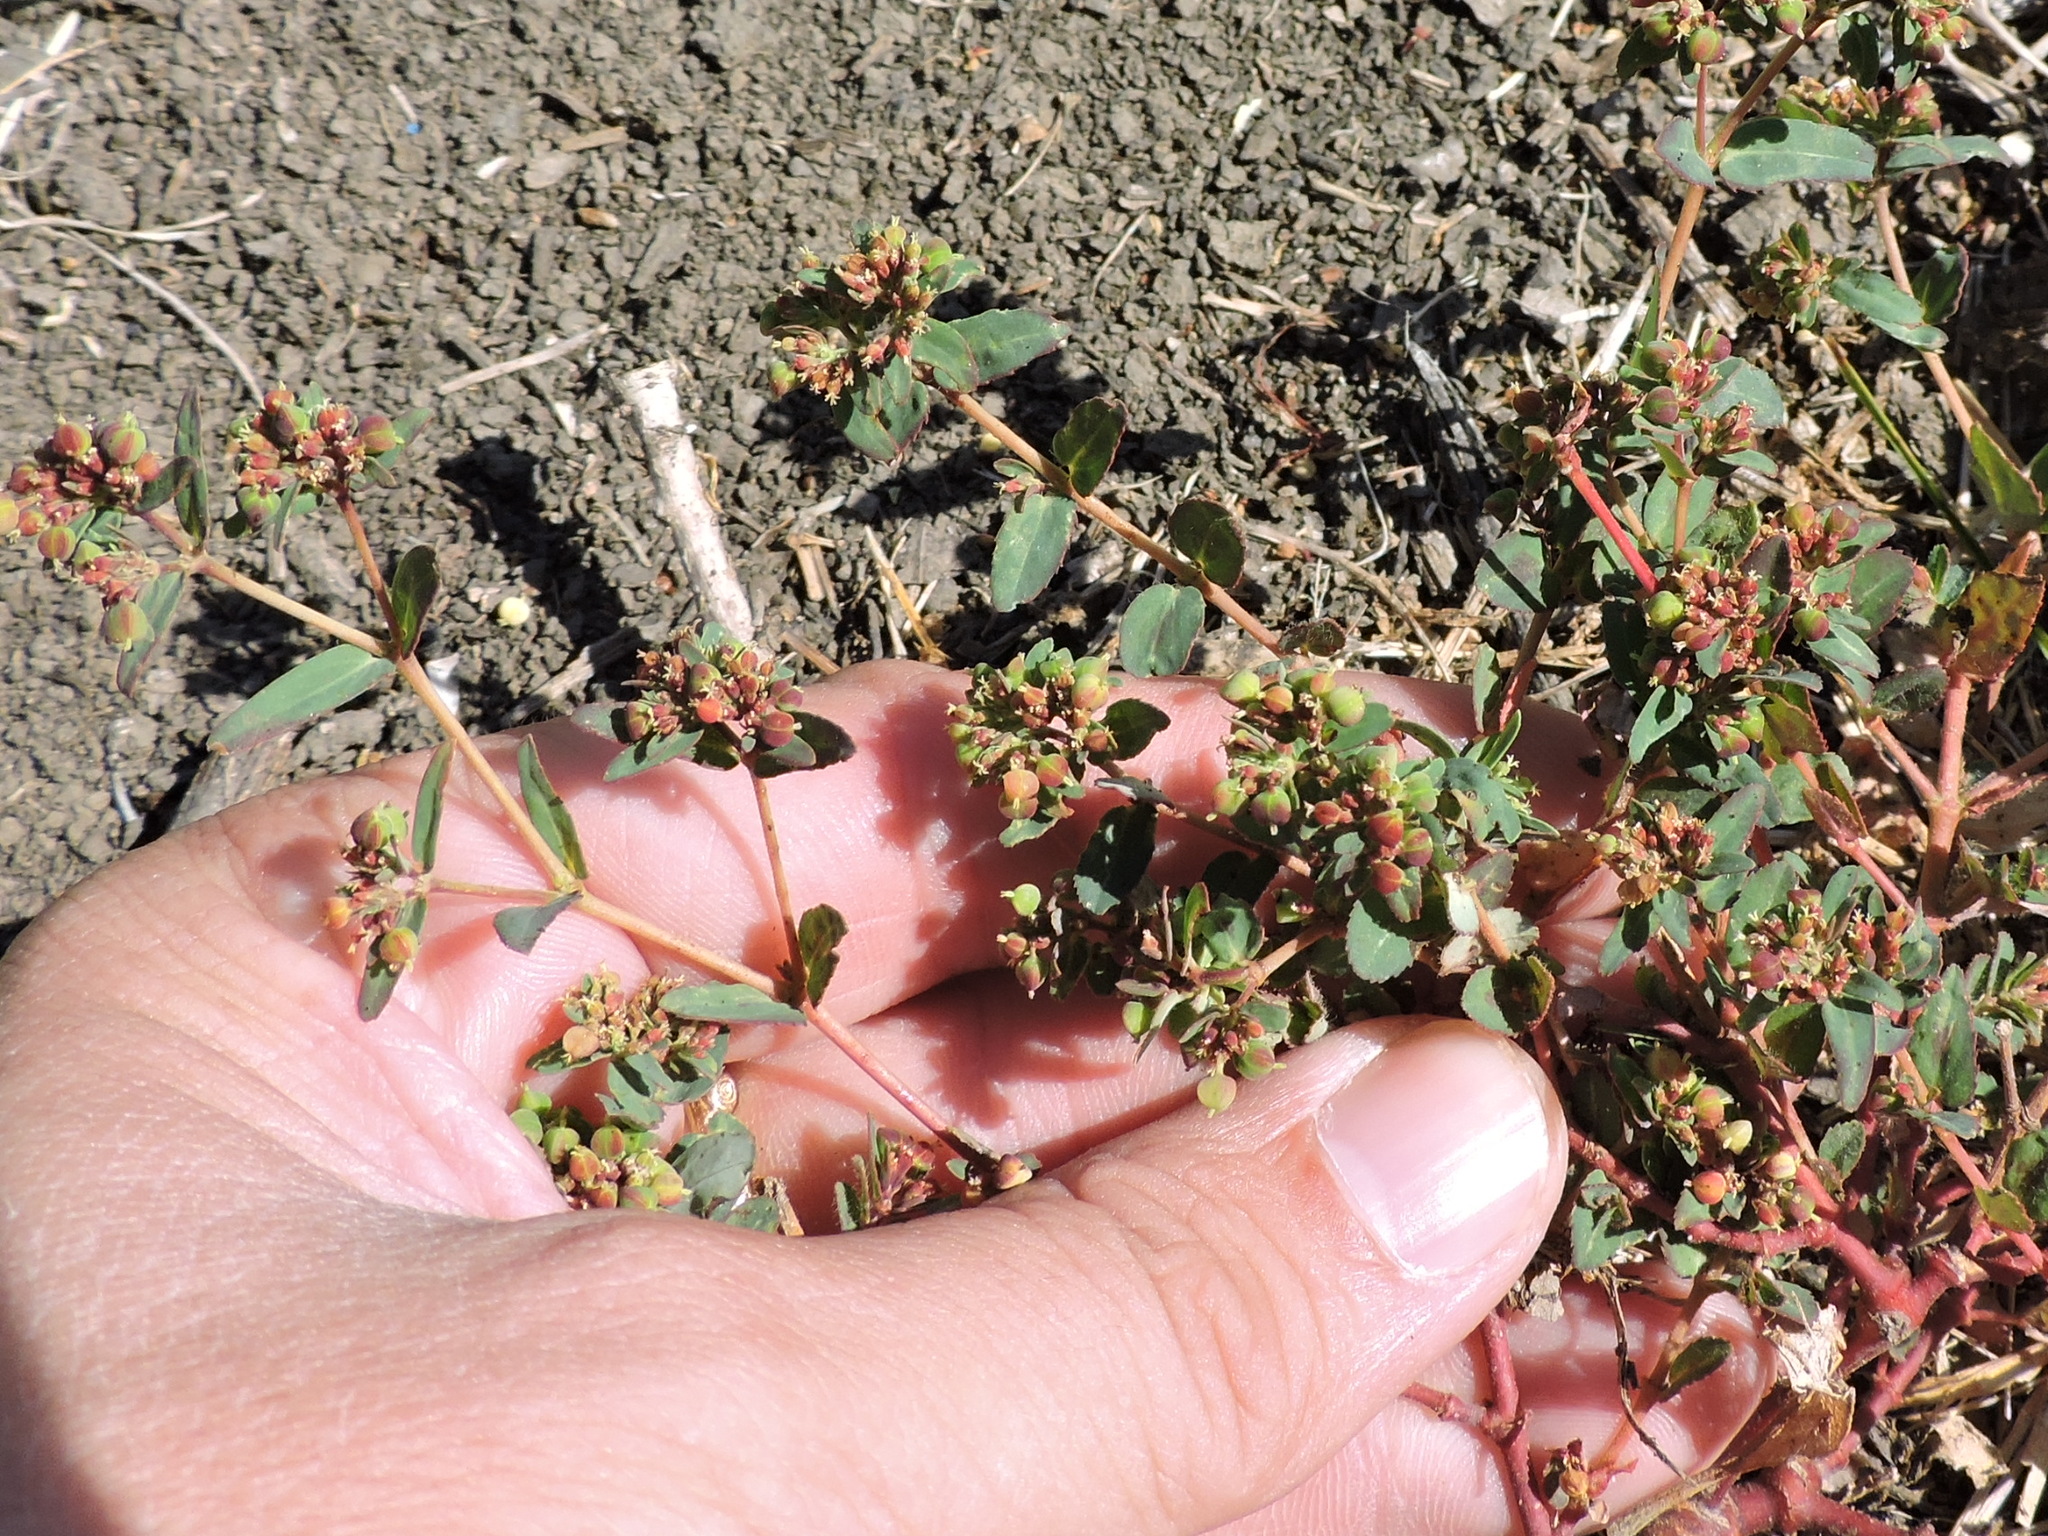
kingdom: Plantae
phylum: Tracheophyta
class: Magnoliopsida
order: Malpighiales
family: Euphorbiaceae
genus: Euphorbia
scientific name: Euphorbia nutans
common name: Eyebane
